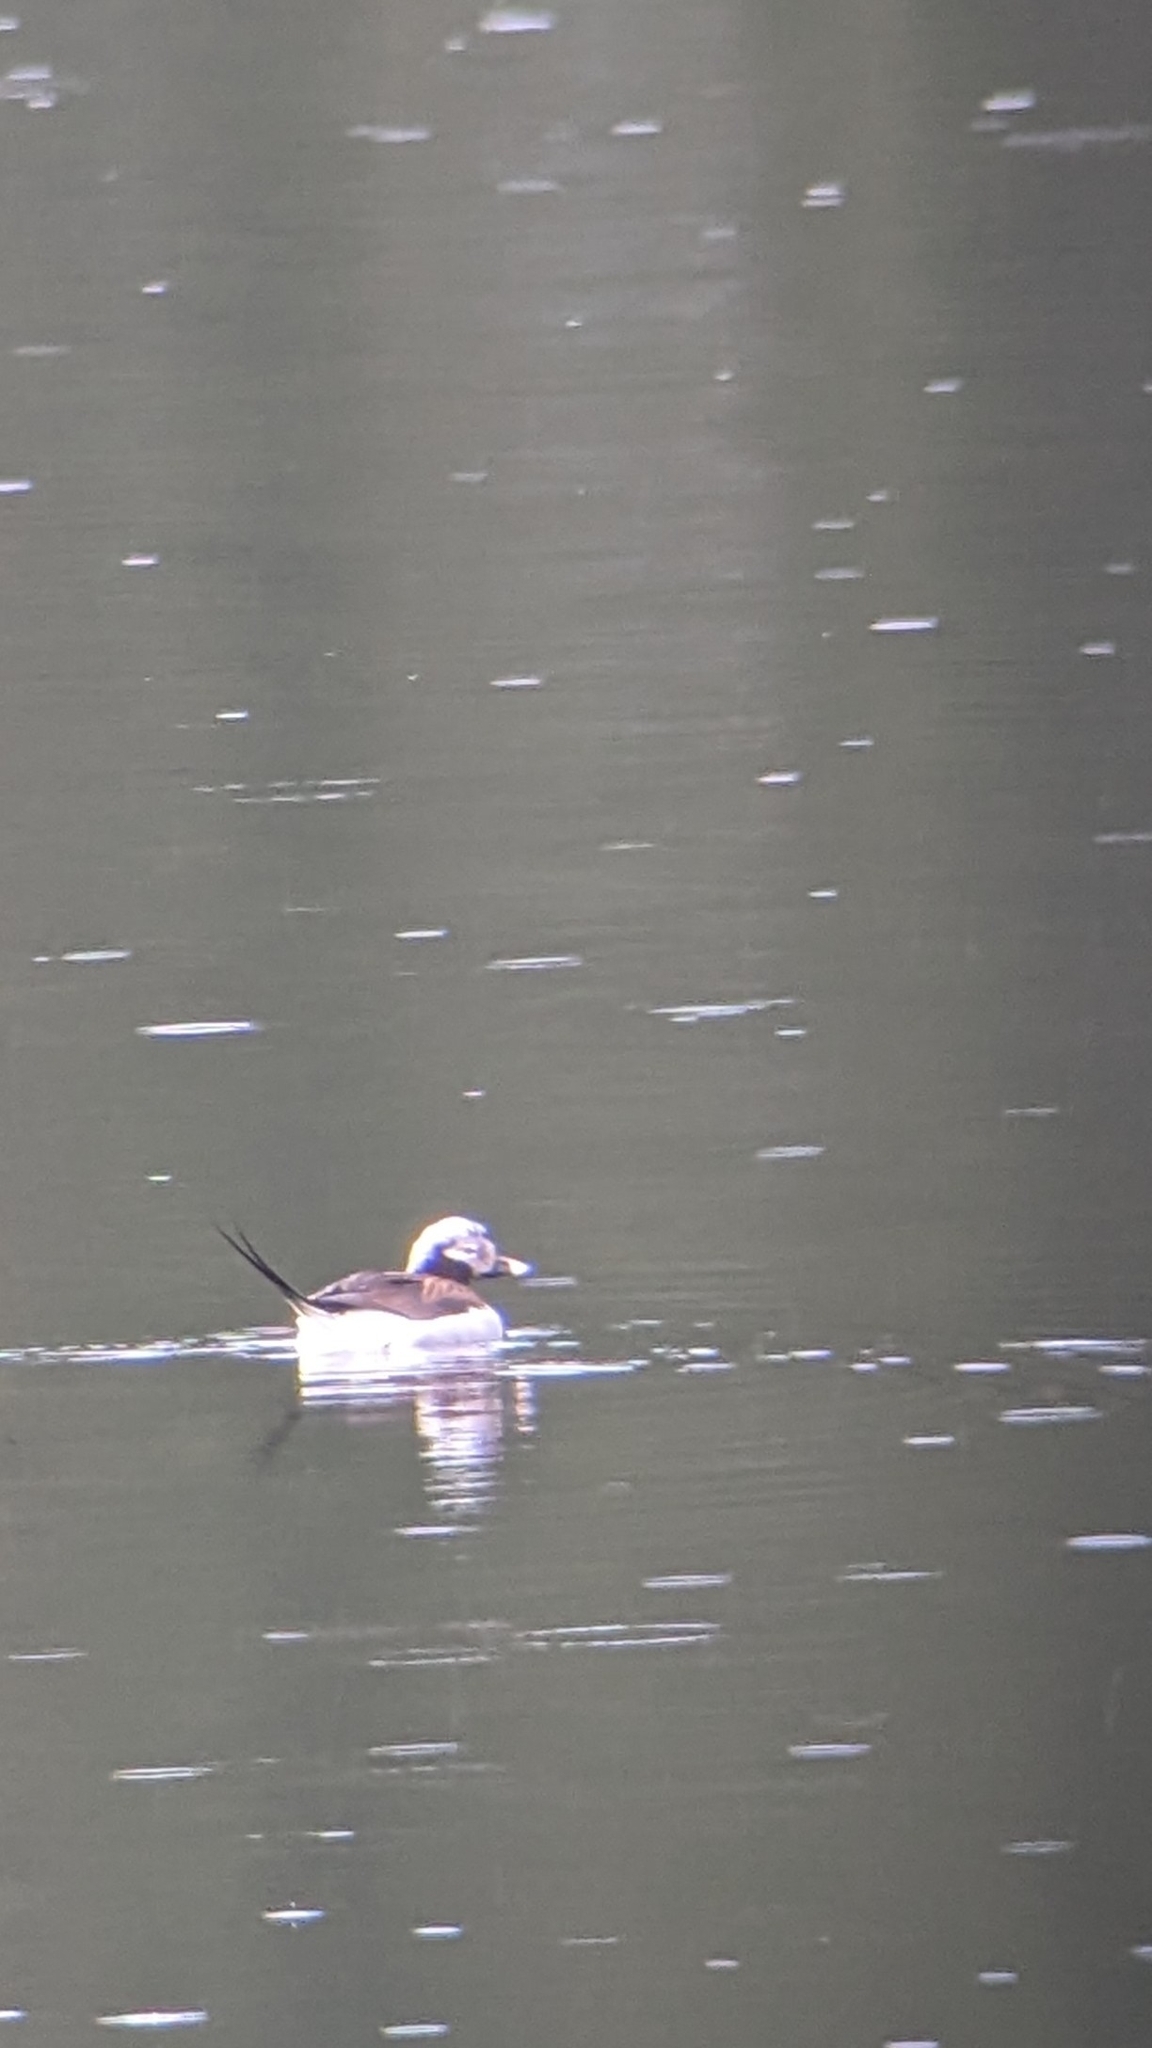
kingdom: Animalia
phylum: Chordata
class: Aves
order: Anseriformes
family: Anatidae
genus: Clangula
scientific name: Clangula hyemalis
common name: Long-tailed duck
